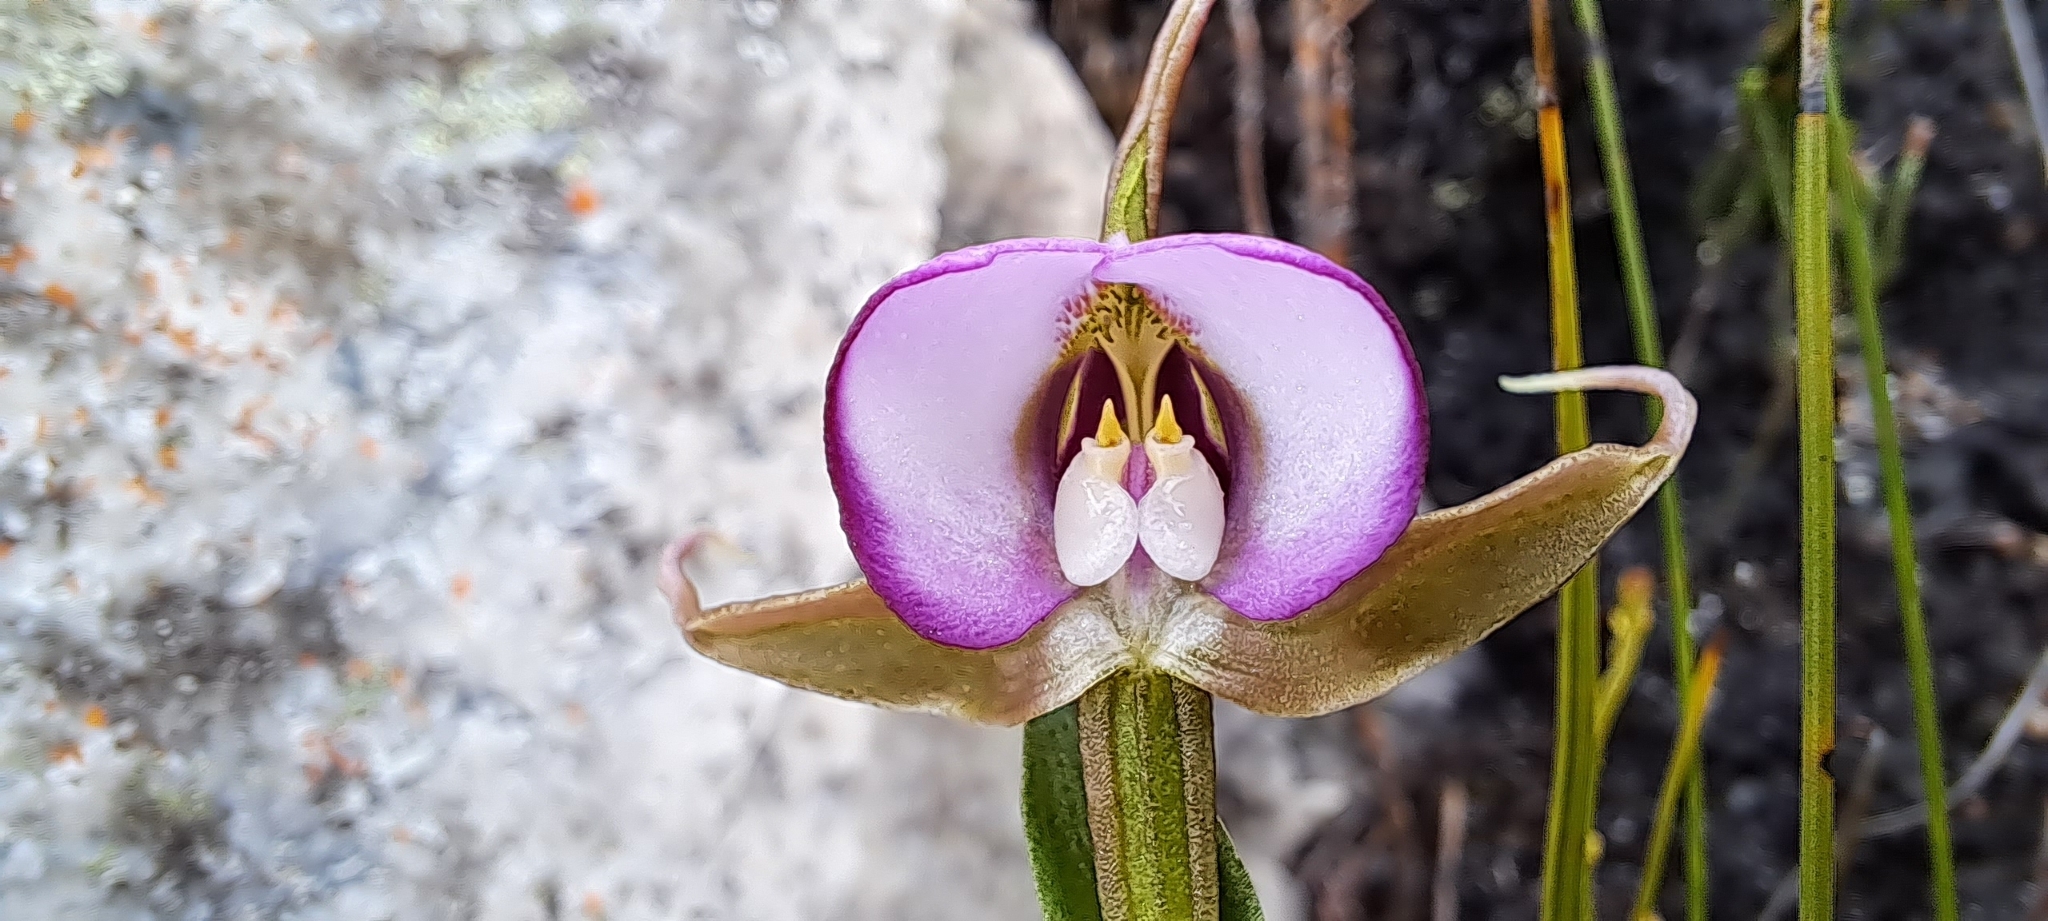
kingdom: Plantae
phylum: Tracheophyta
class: Liliopsida
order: Asparagales
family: Orchidaceae
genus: Disperis
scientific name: Disperis capensis
